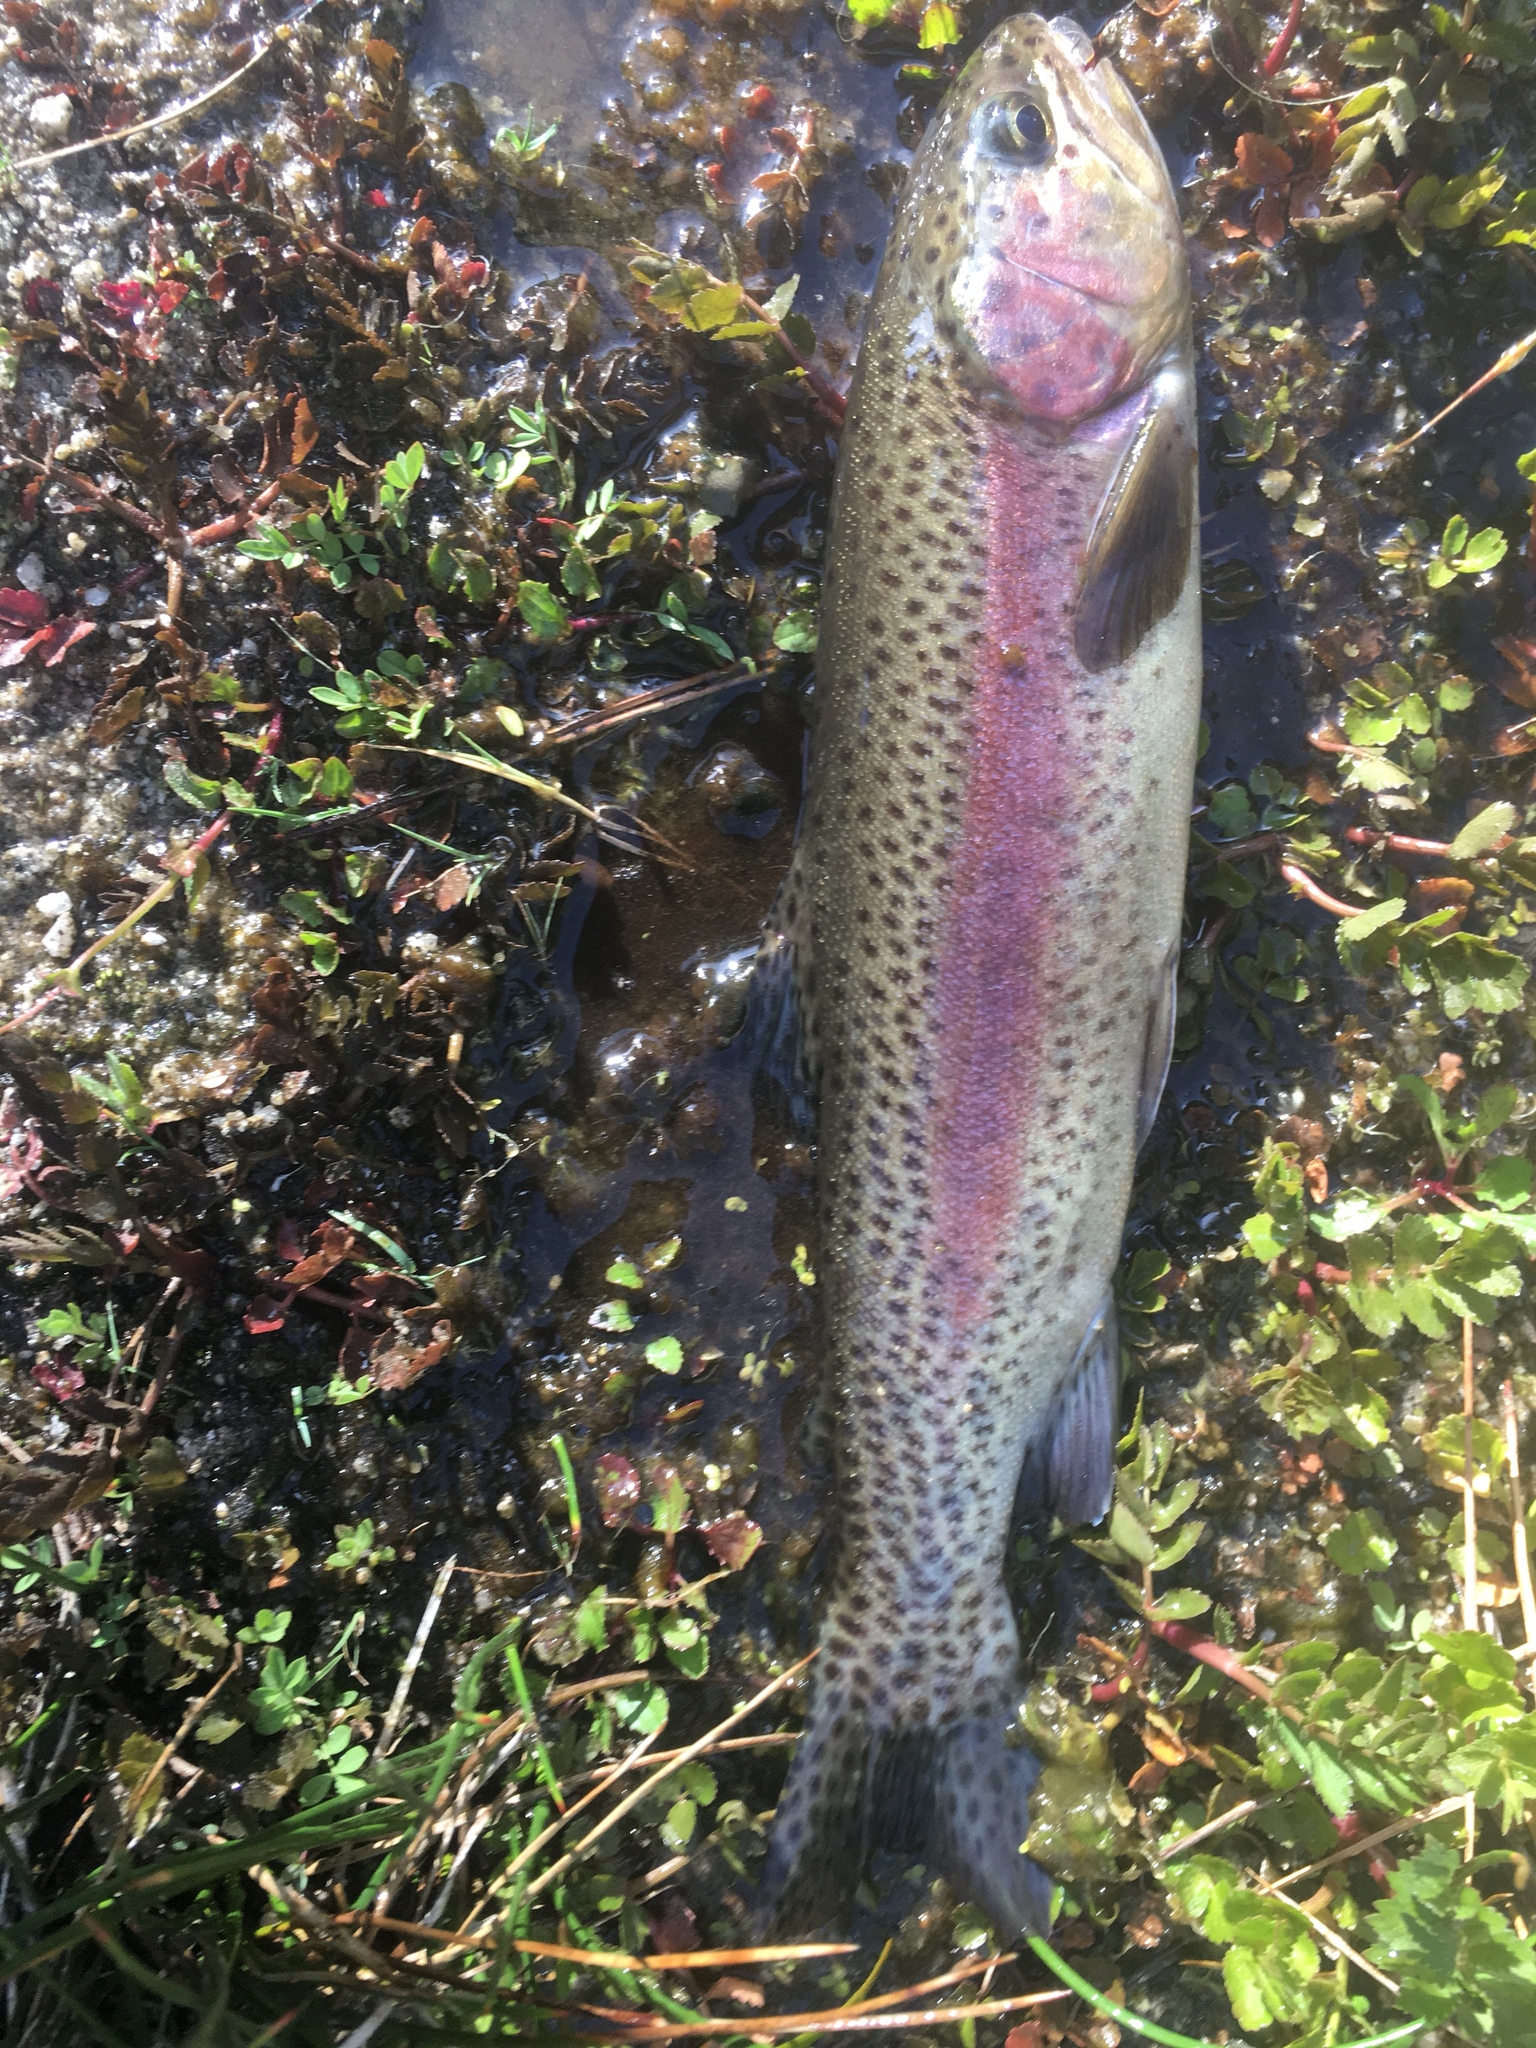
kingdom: Animalia
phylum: Chordata
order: Salmoniformes
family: Salmonidae
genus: Oncorhynchus
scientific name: Oncorhynchus
